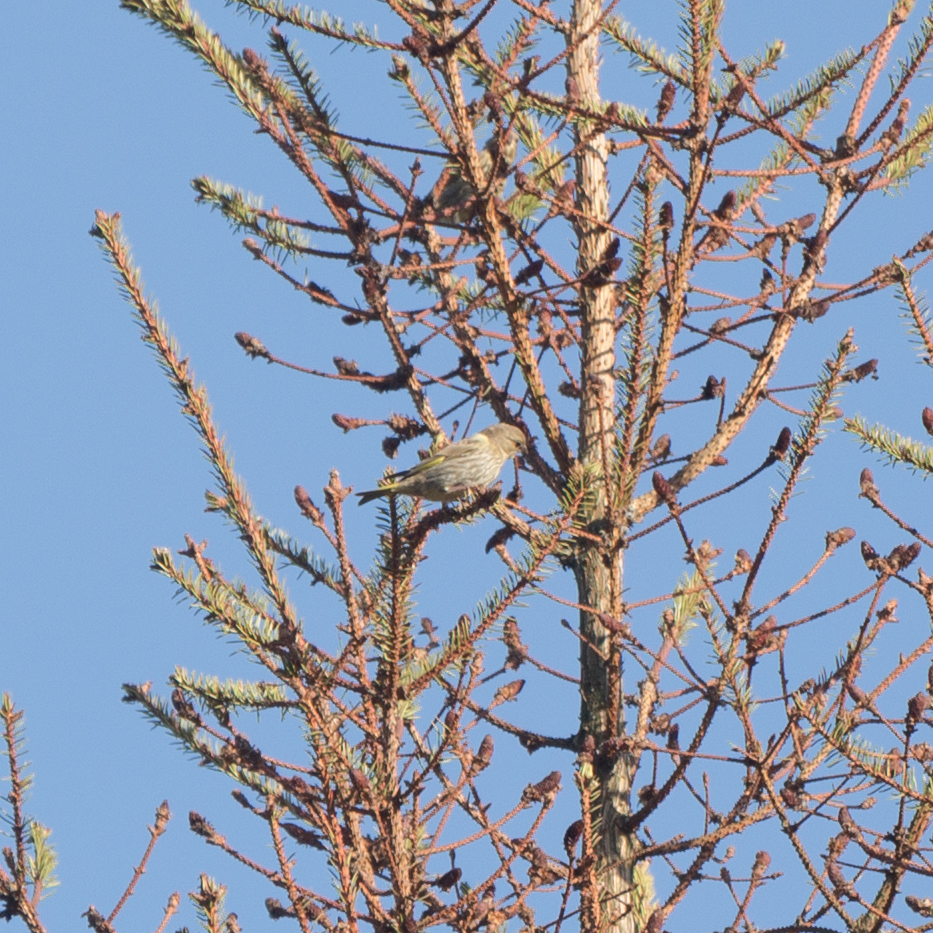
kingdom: Plantae
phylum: Tracheophyta
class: Liliopsida
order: Poales
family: Poaceae
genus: Chloris
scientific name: Chloris chloris
